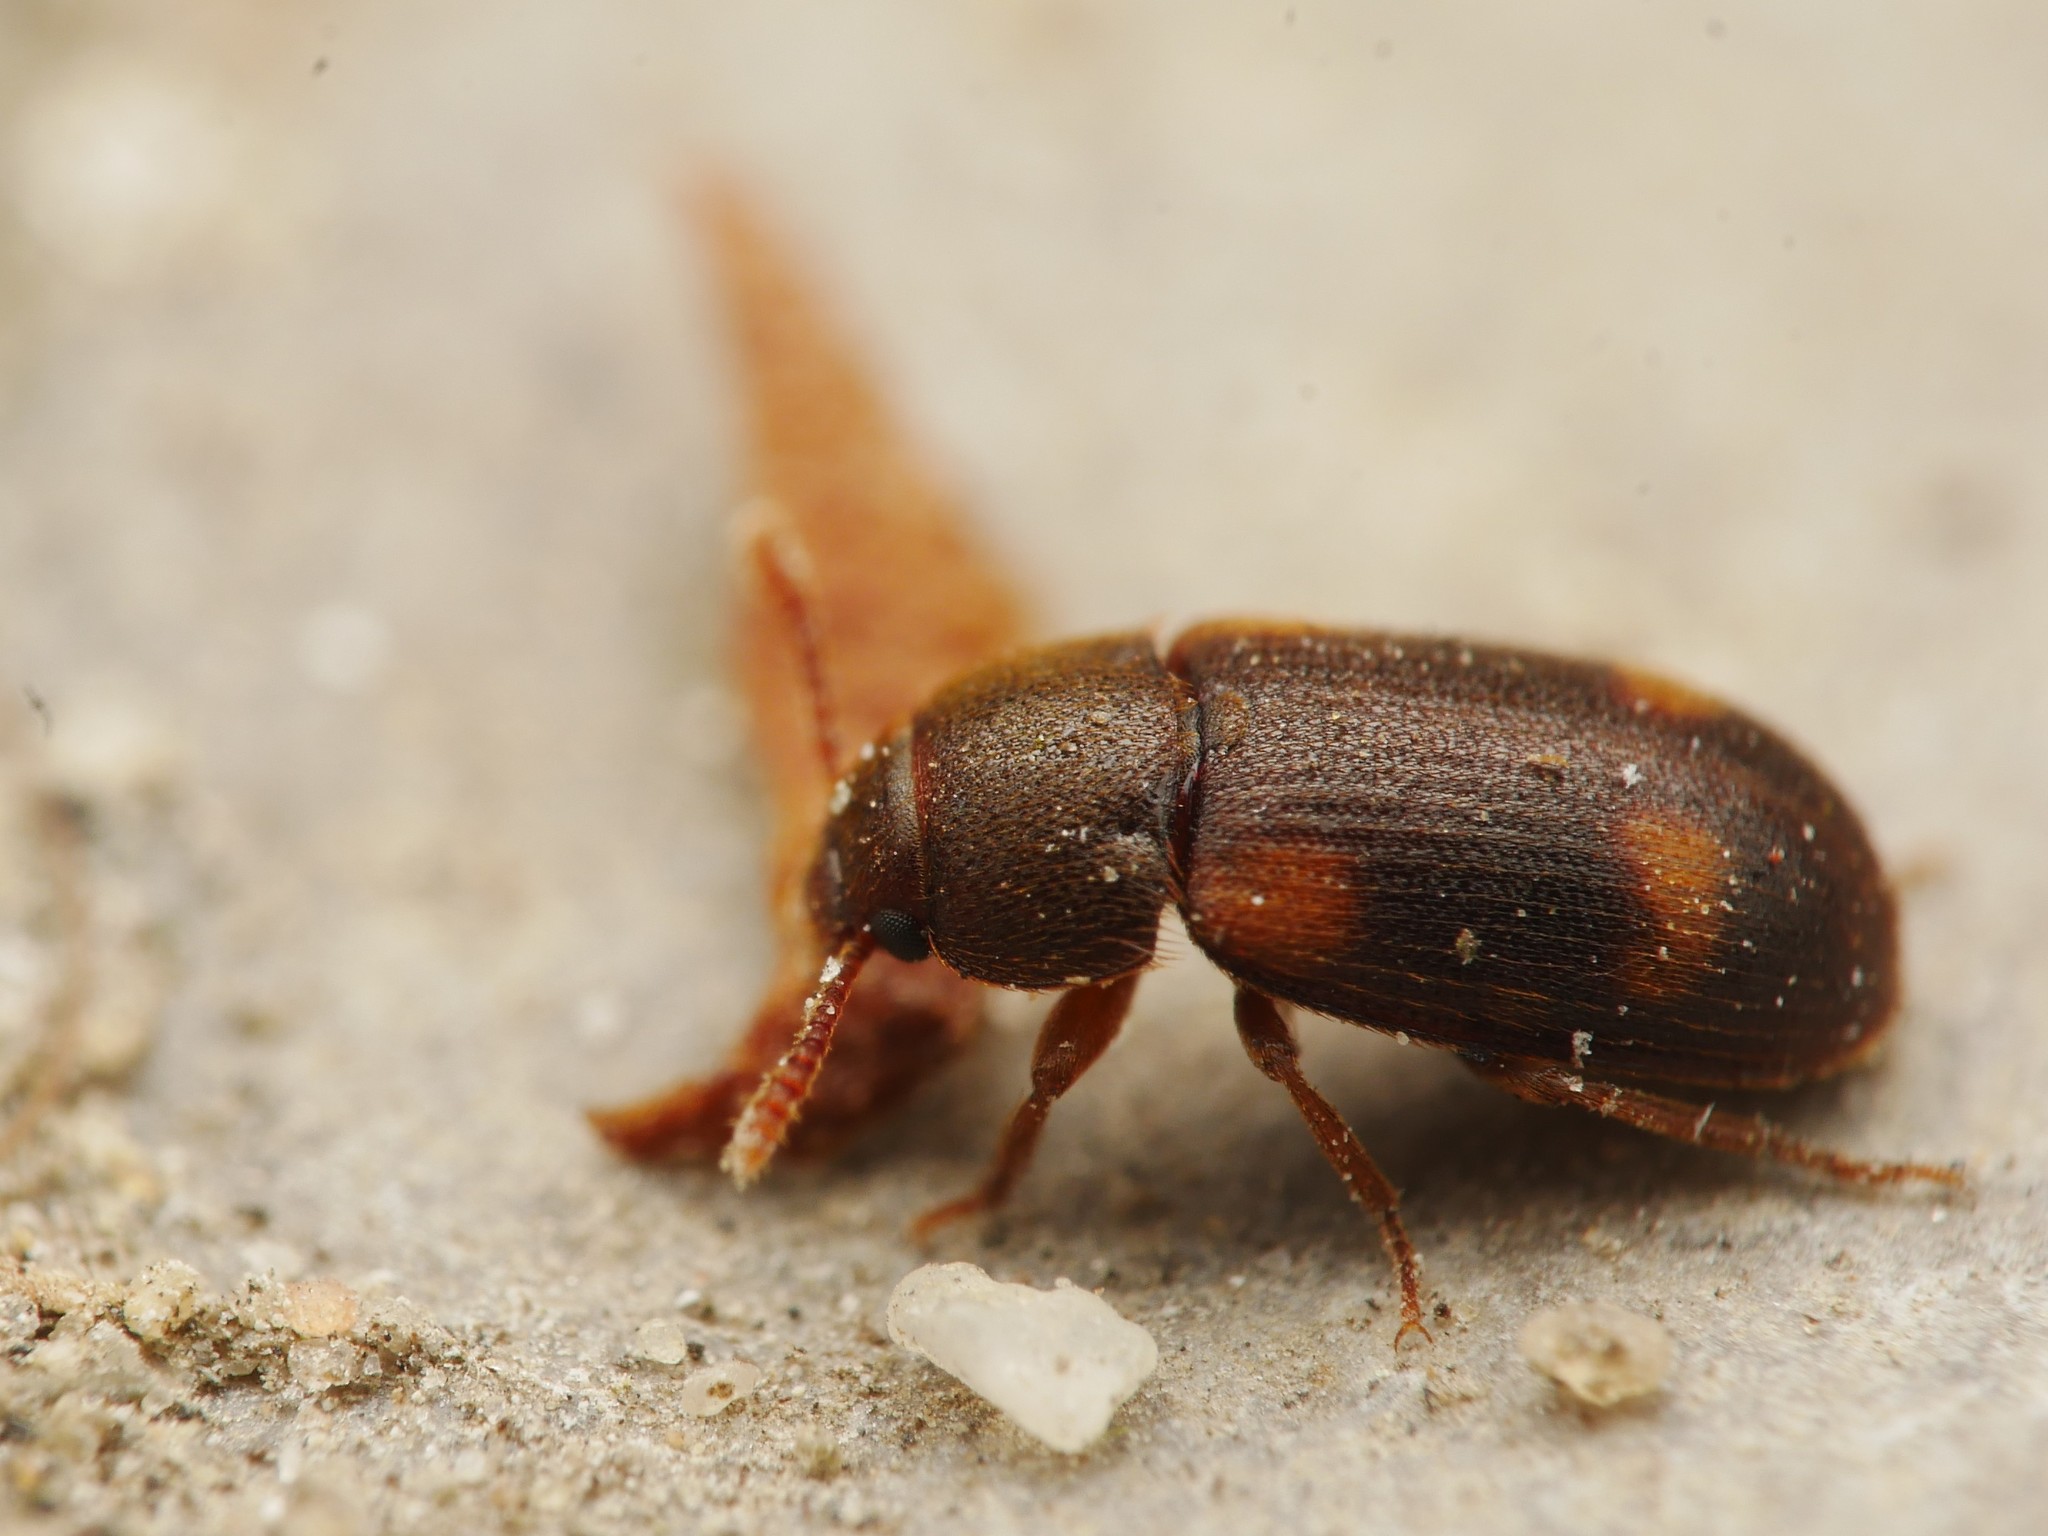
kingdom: Animalia
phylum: Arthropoda
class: Insecta
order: Coleoptera
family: Mycetophagidae
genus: Mycetophagus
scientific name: Mycetophagus quadriguttatus
